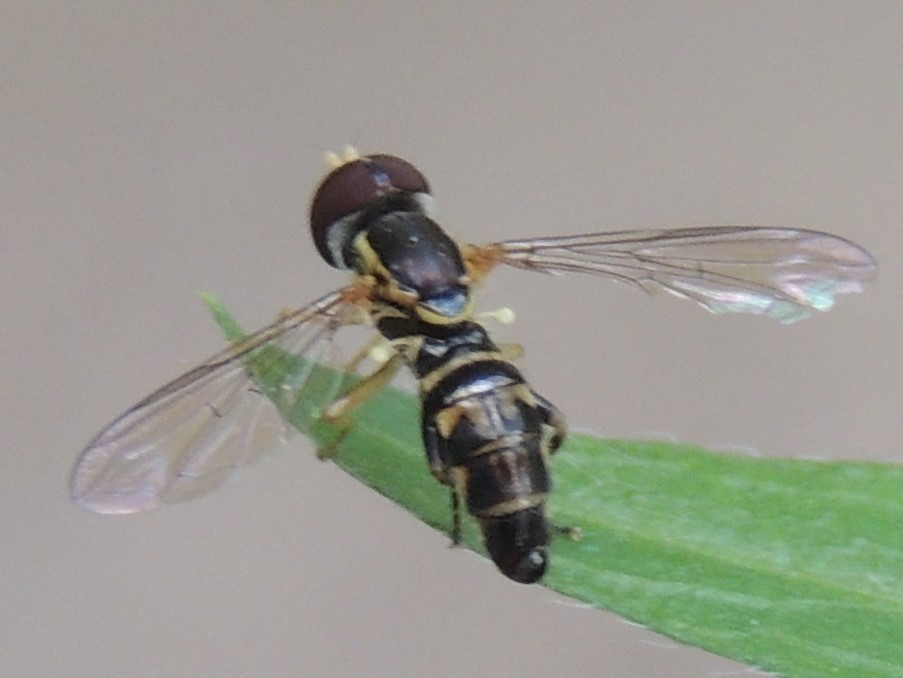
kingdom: Animalia
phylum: Arthropoda
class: Insecta
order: Diptera
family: Syrphidae
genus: Toxomerus
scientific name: Toxomerus geminatus
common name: Eastern calligrapher
